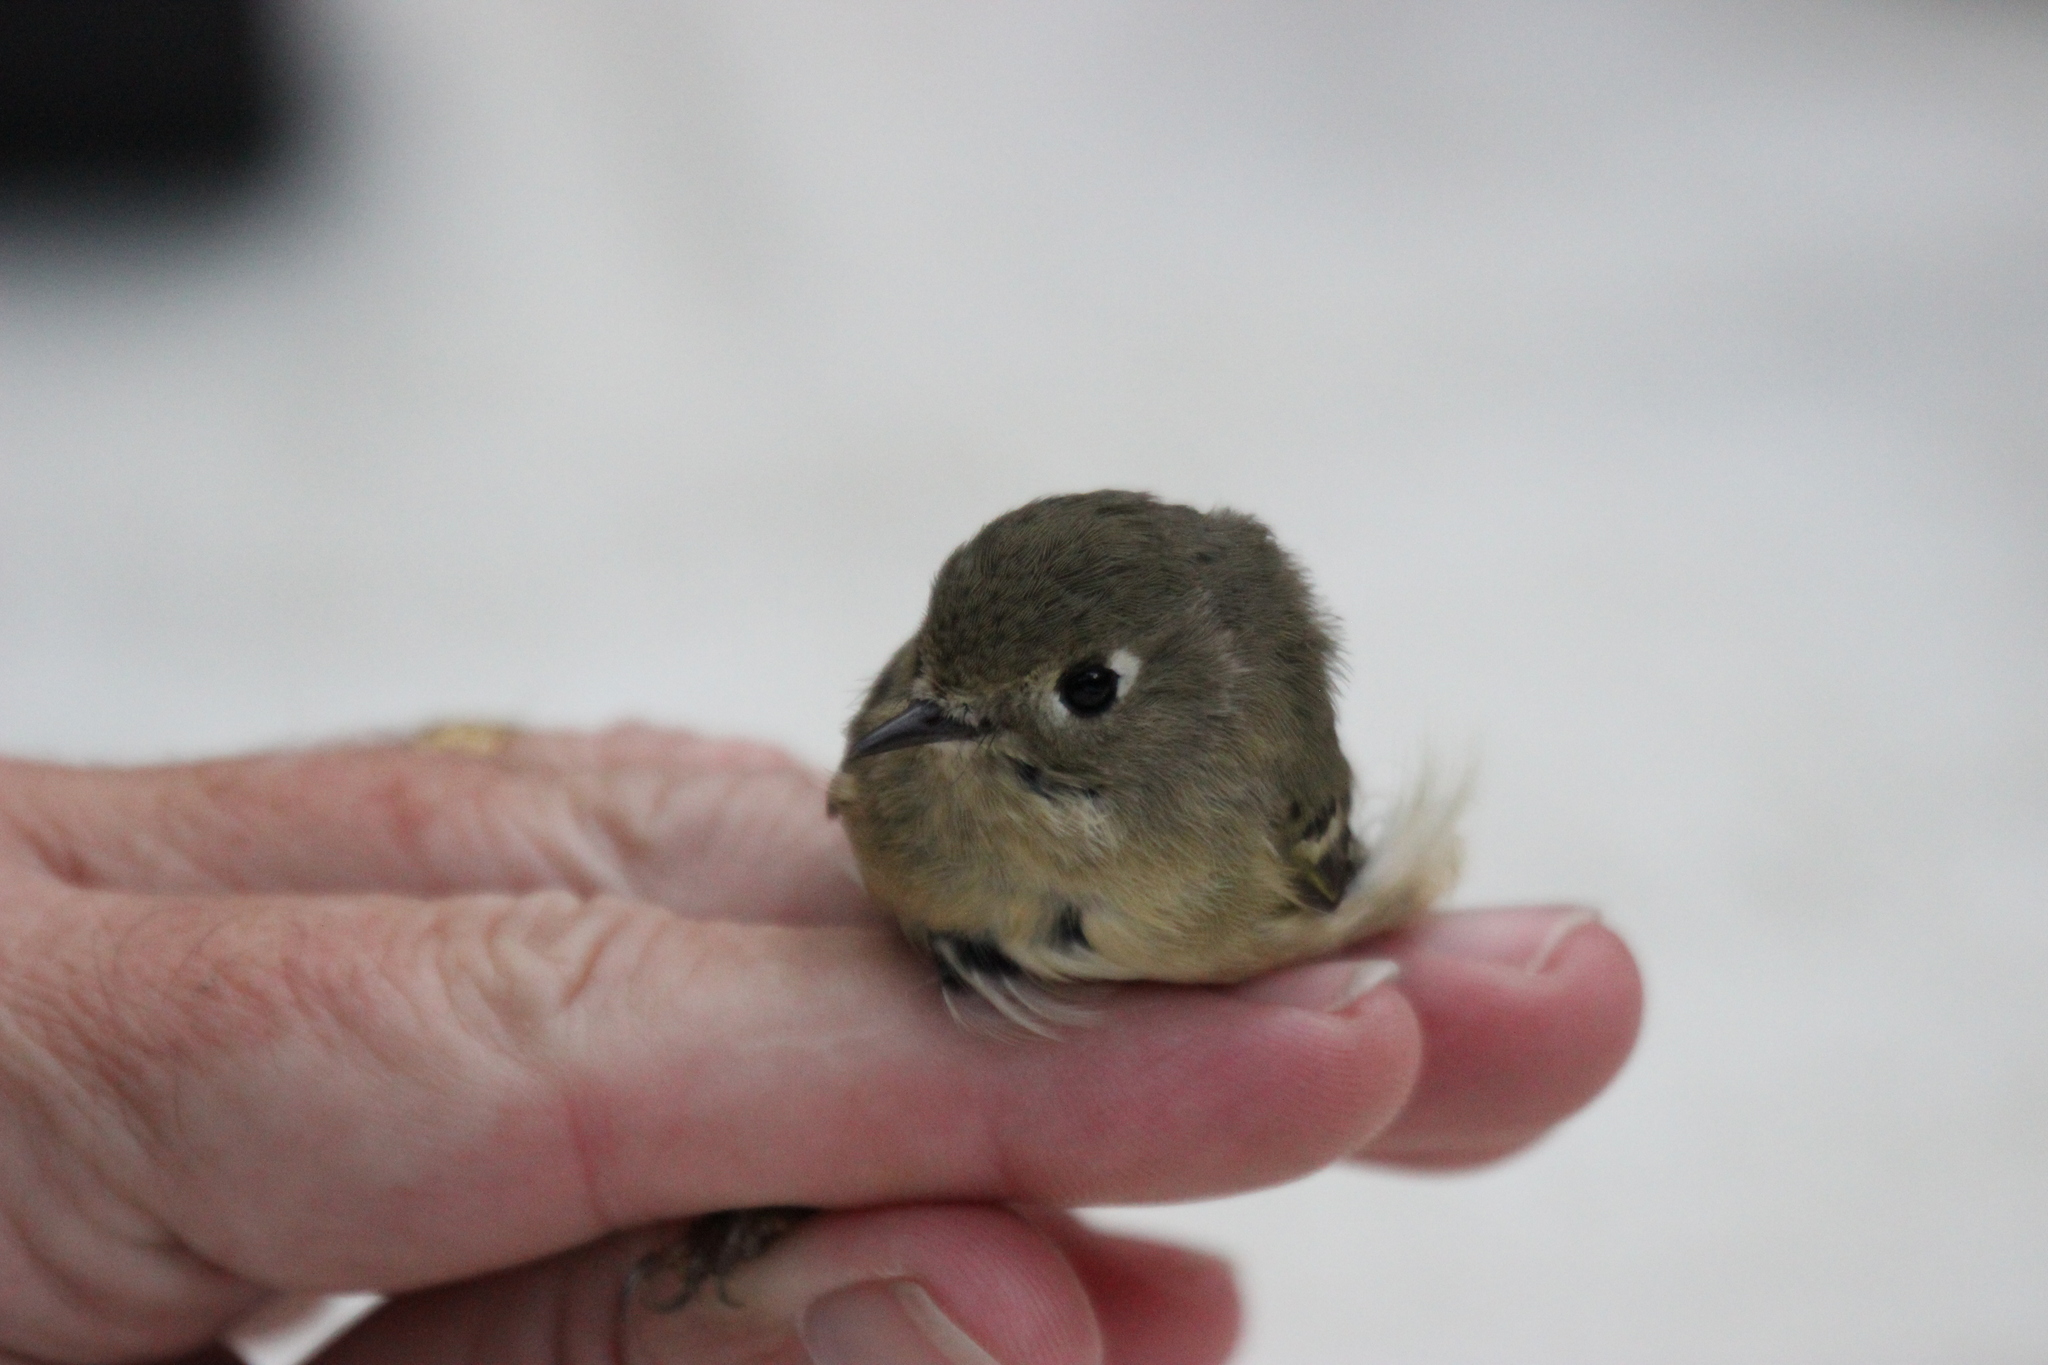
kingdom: Animalia
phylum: Chordata
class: Aves
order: Passeriformes
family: Regulidae
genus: Regulus
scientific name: Regulus calendula
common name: Ruby-crowned kinglet
